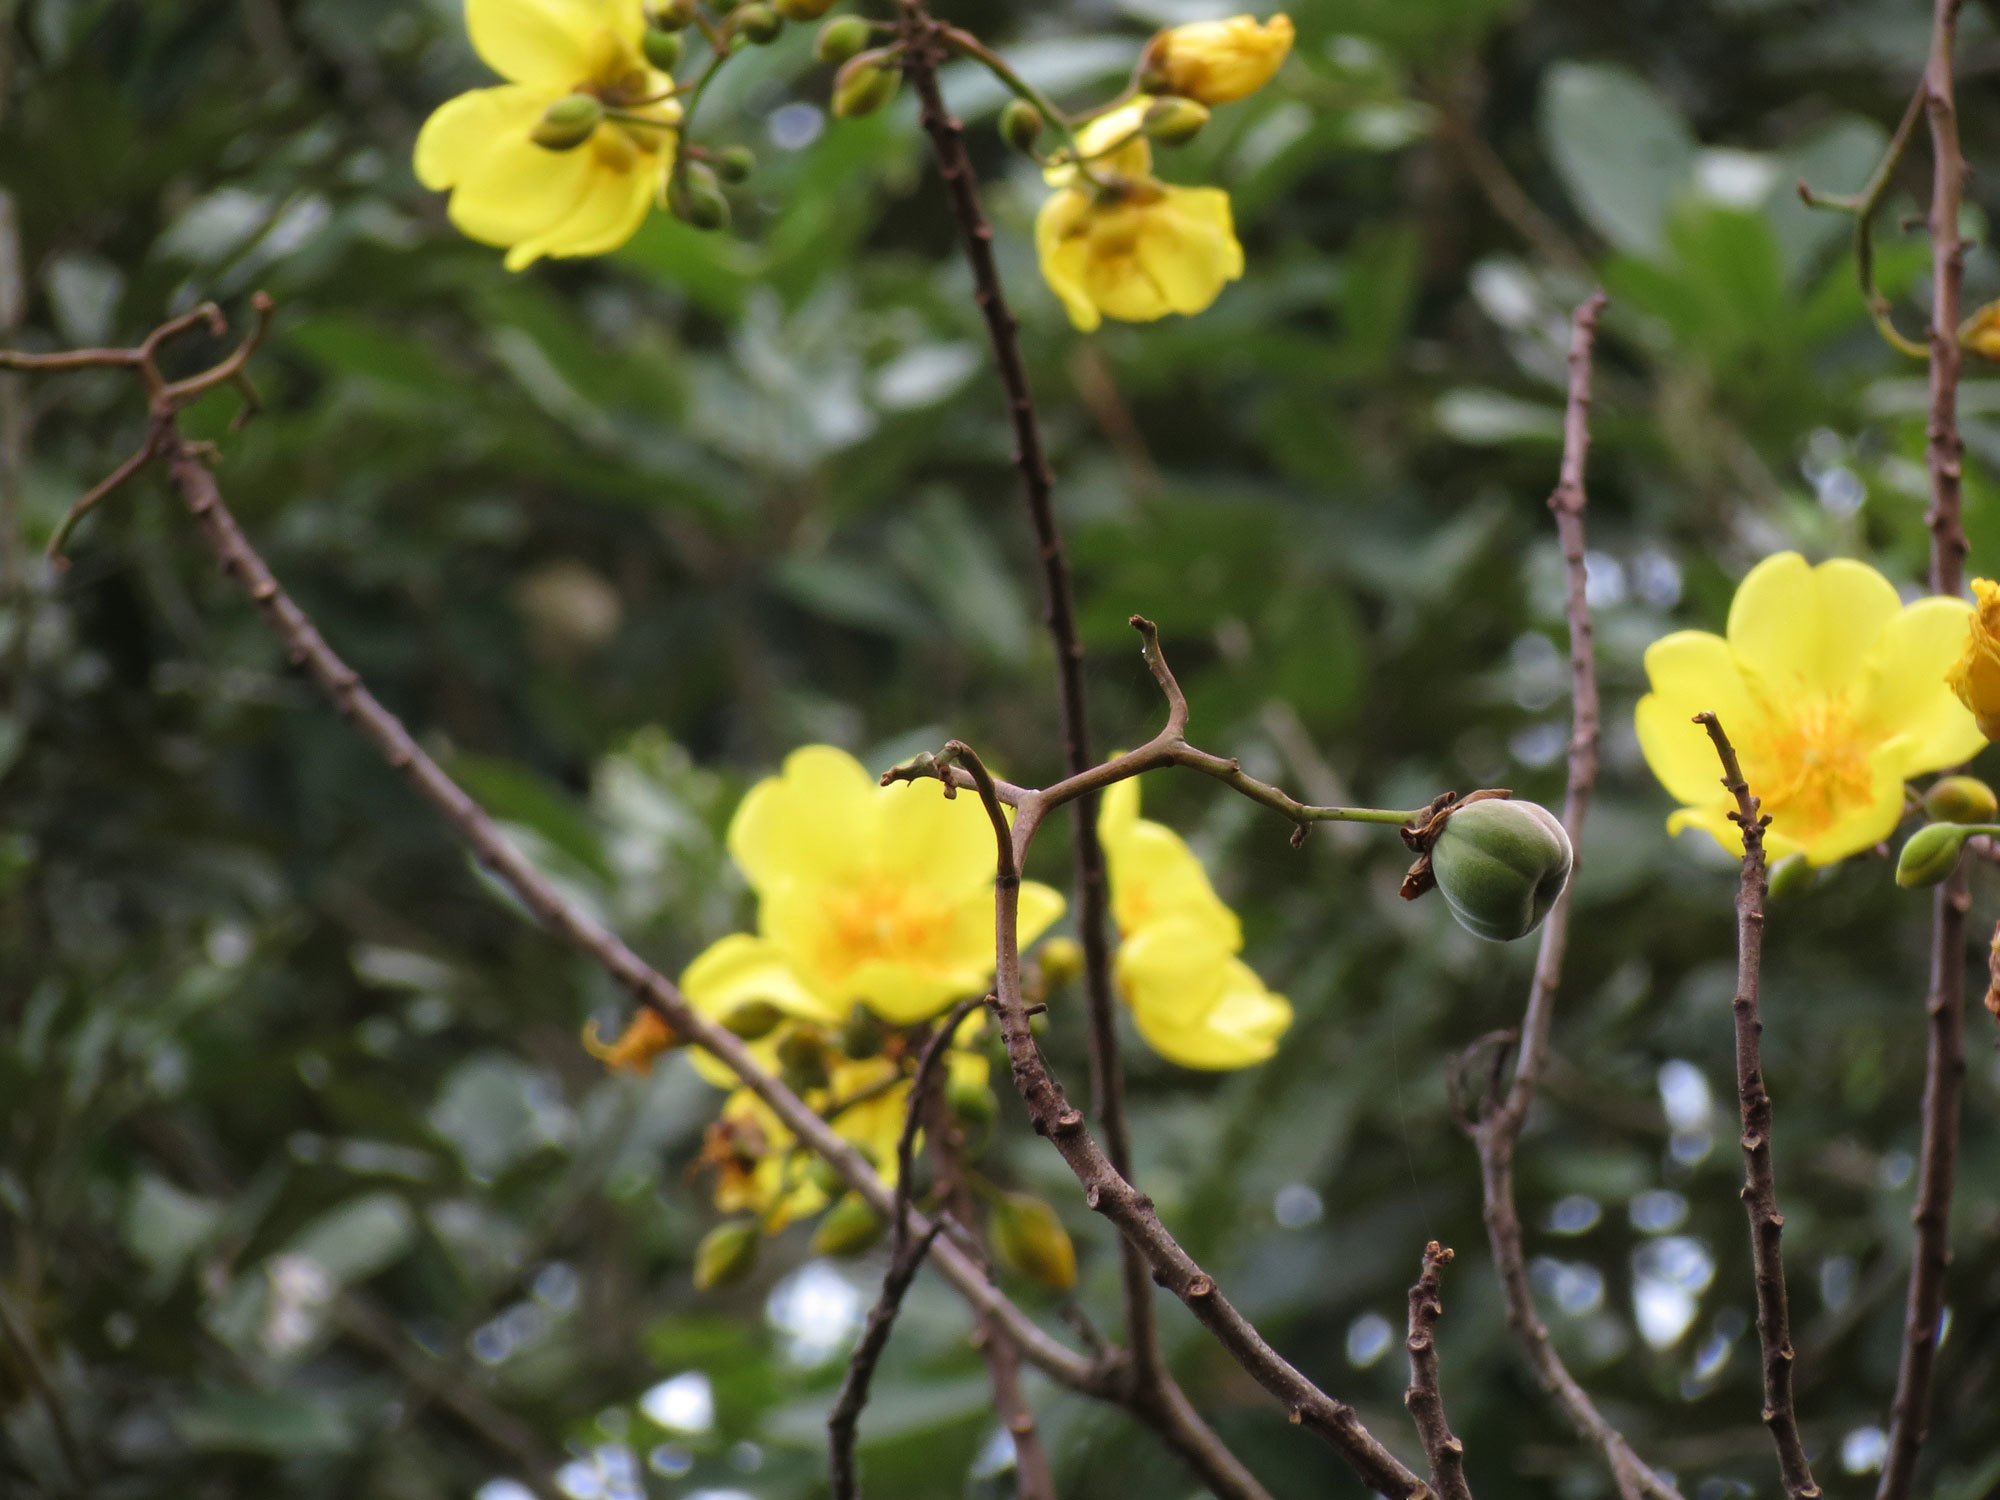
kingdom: Plantae
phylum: Tracheophyta
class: Magnoliopsida
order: Malvales
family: Cochlospermaceae
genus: Cochlospermum
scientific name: Cochlospermum vitifolium
